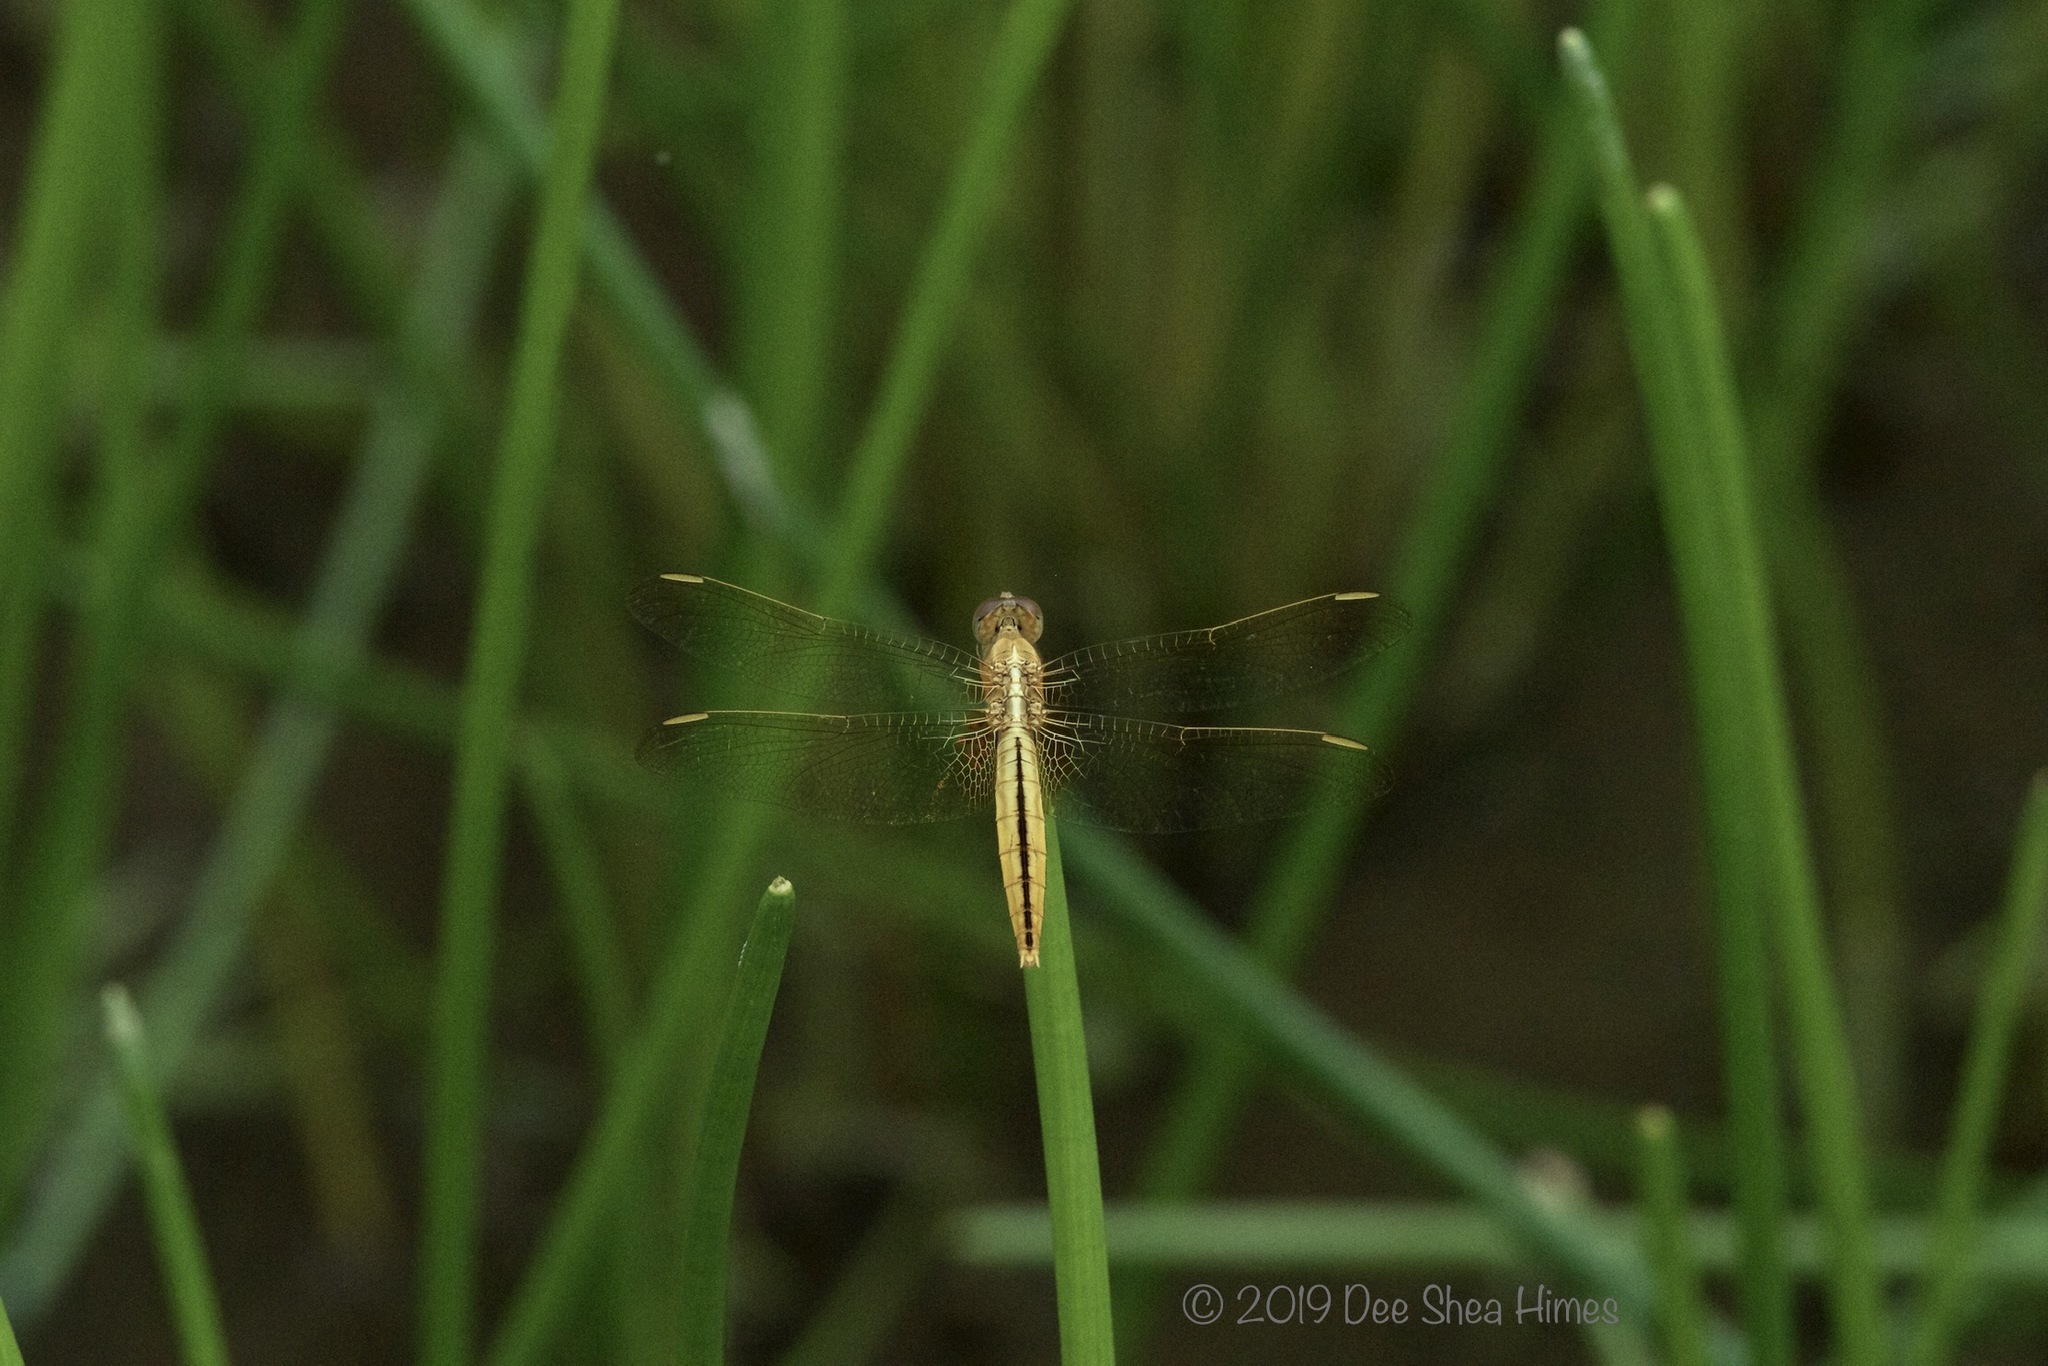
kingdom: Animalia
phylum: Arthropoda
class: Insecta
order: Odonata
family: Libellulidae
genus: Crocothemis
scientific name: Crocothemis servilia
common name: Scarlet skimmer
